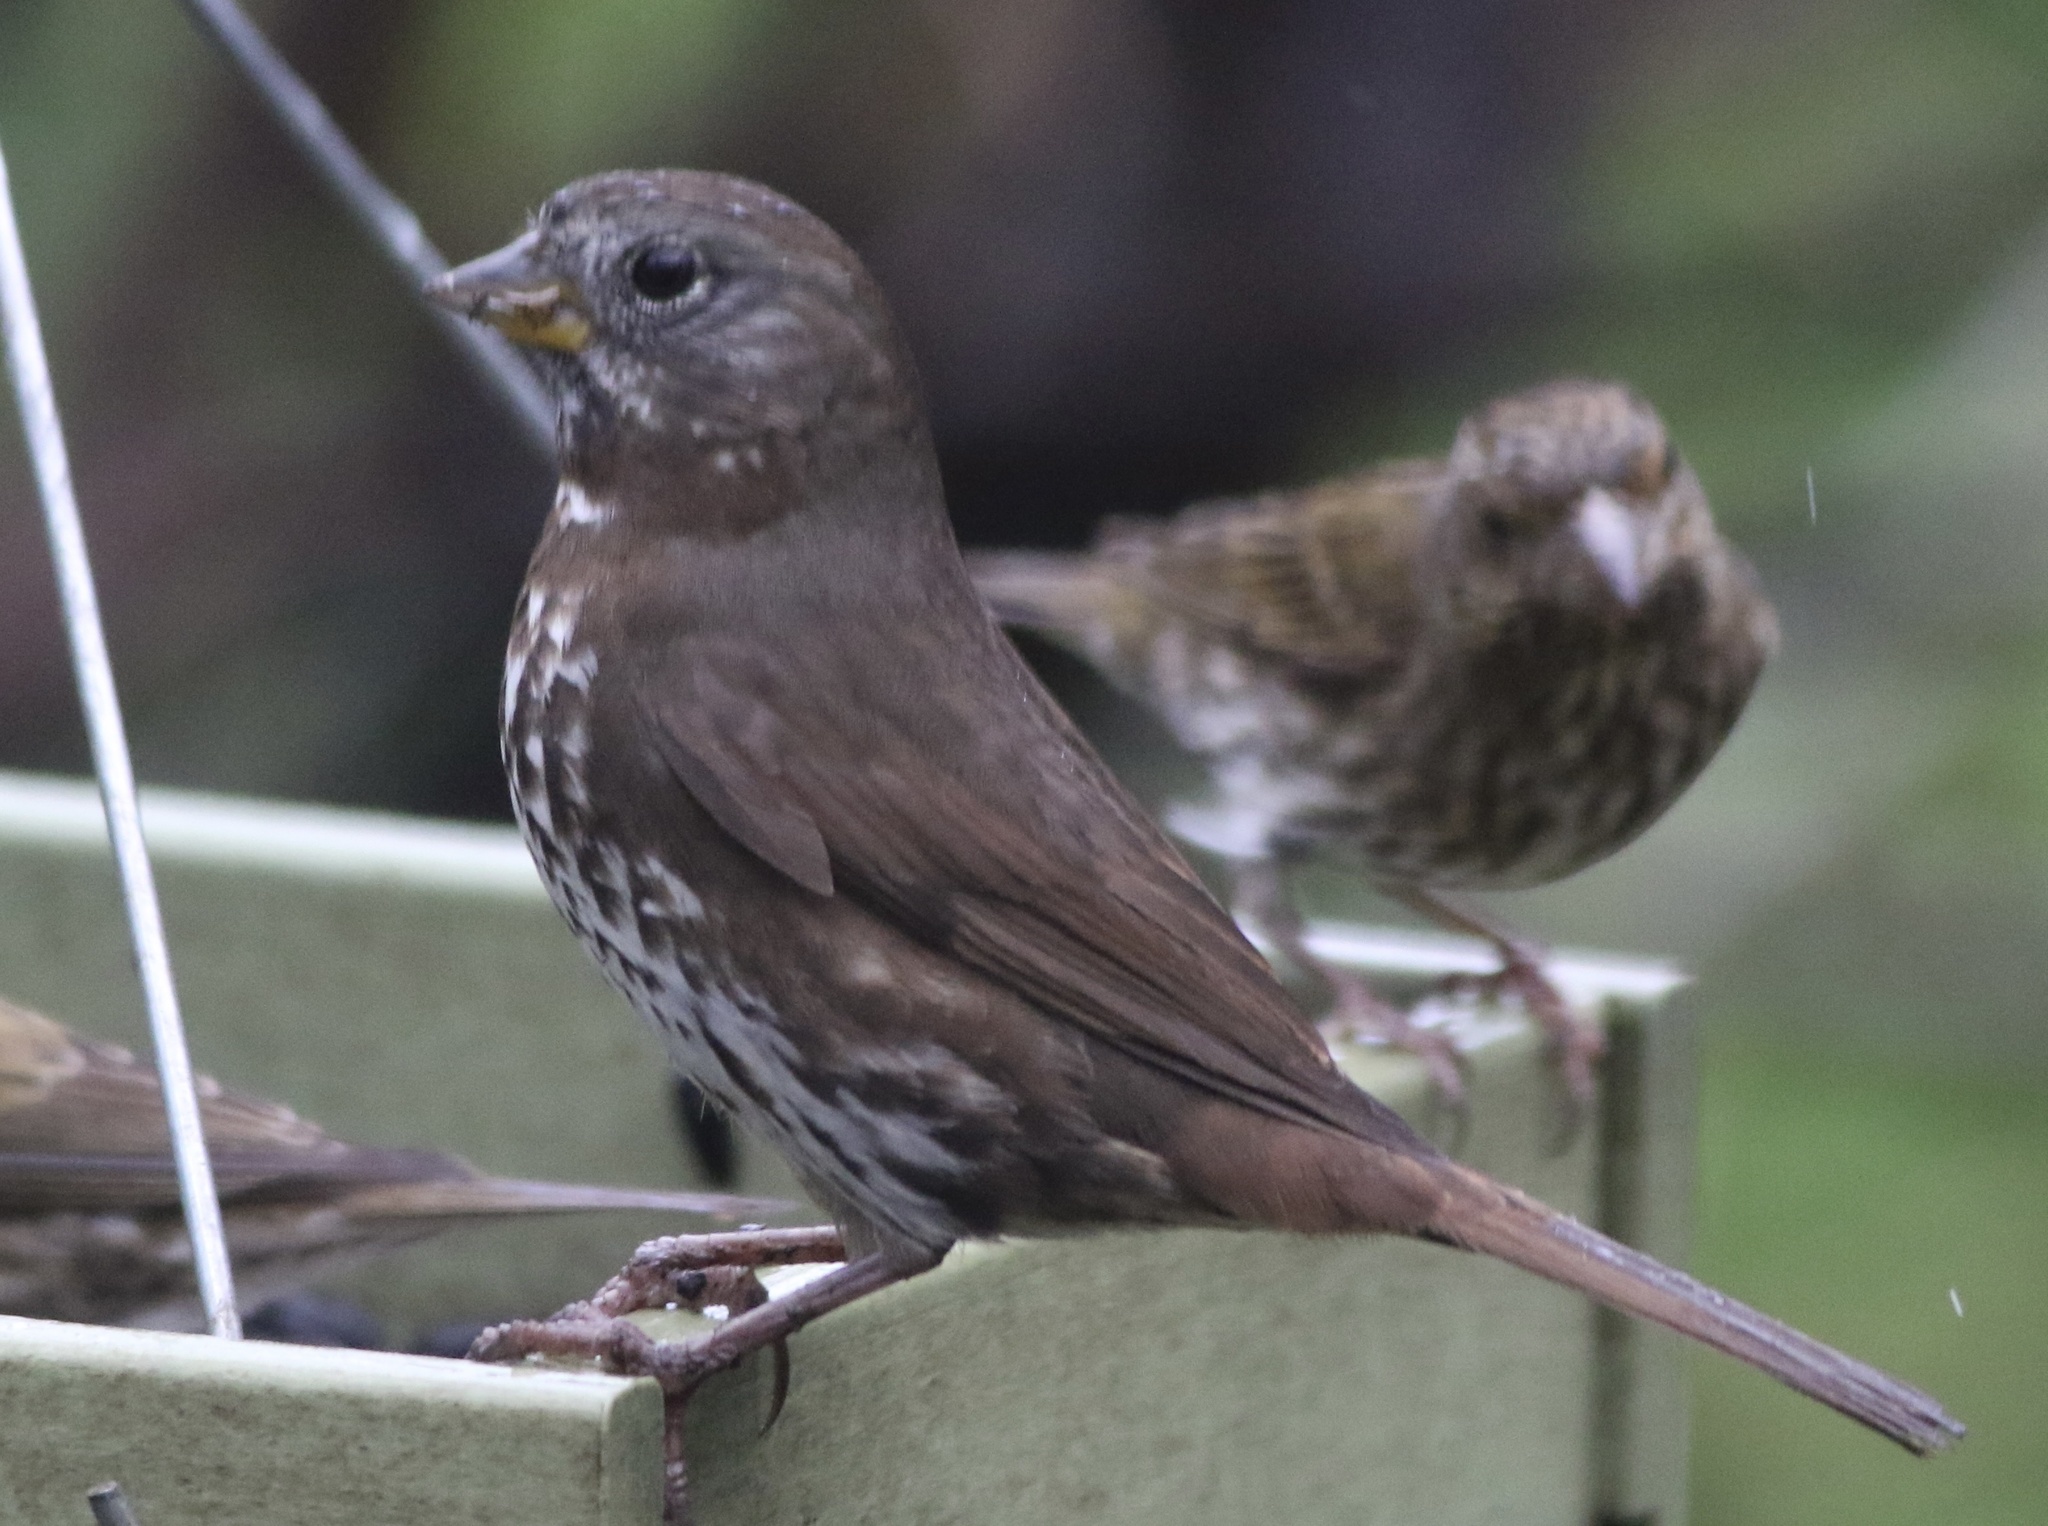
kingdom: Animalia
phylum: Chordata
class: Aves
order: Passeriformes
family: Passerellidae
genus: Passerella
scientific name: Passerella iliaca
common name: Fox sparrow
